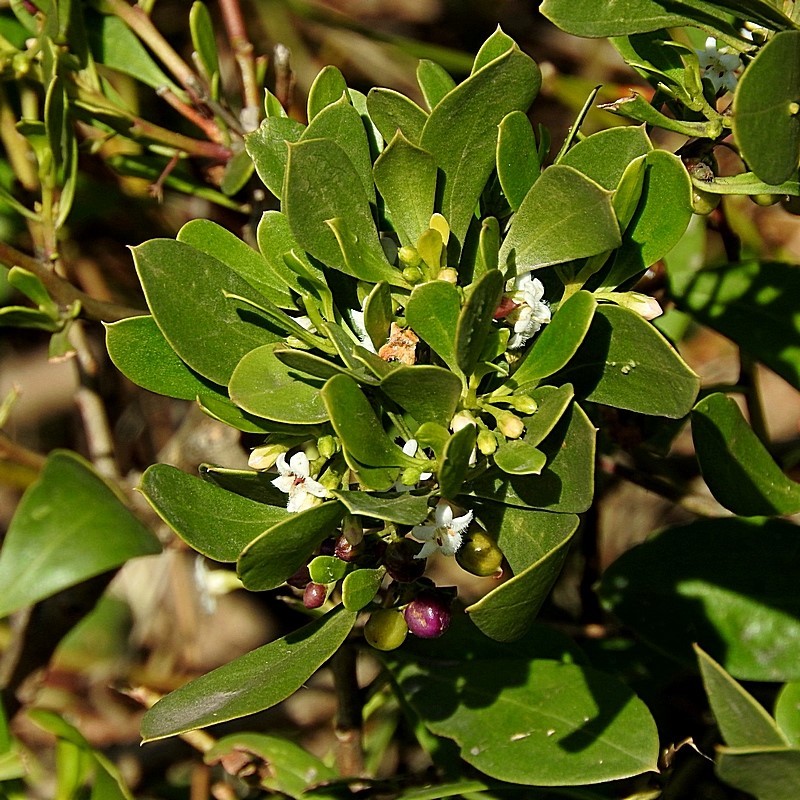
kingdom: Plantae
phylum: Tracheophyta
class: Magnoliopsida
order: Lamiales
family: Scrophulariaceae
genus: Myoporum
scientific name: Myoporum boninense
